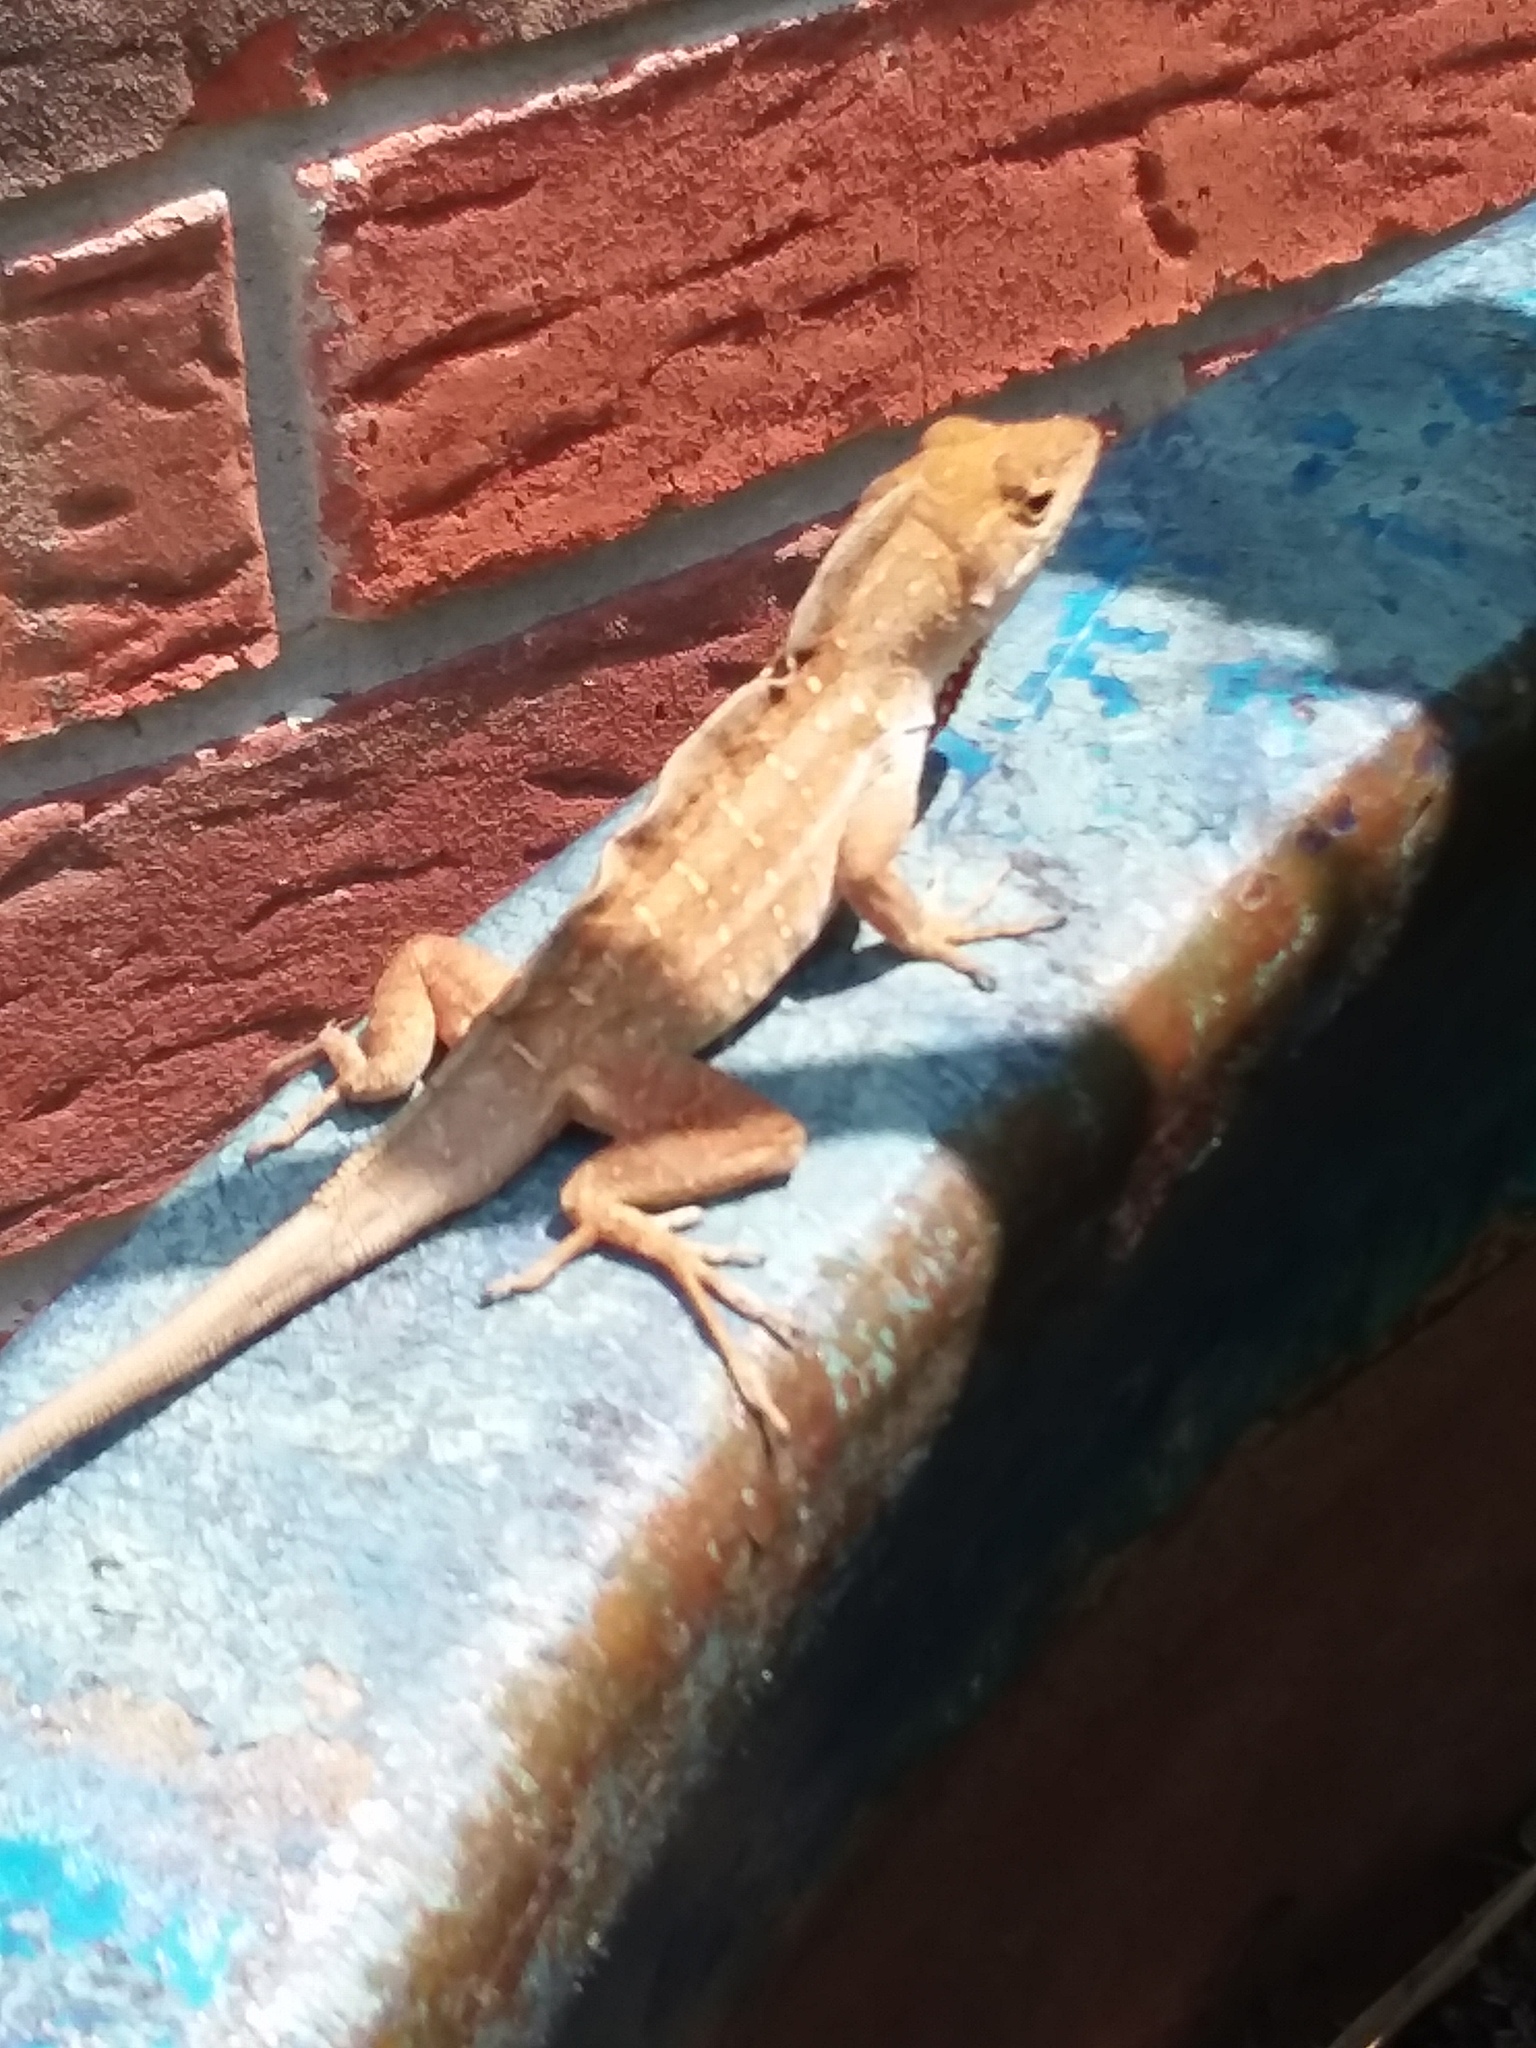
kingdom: Animalia
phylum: Chordata
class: Squamata
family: Dactyloidae
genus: Anolis
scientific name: Anolis sagrei
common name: Brown anole
